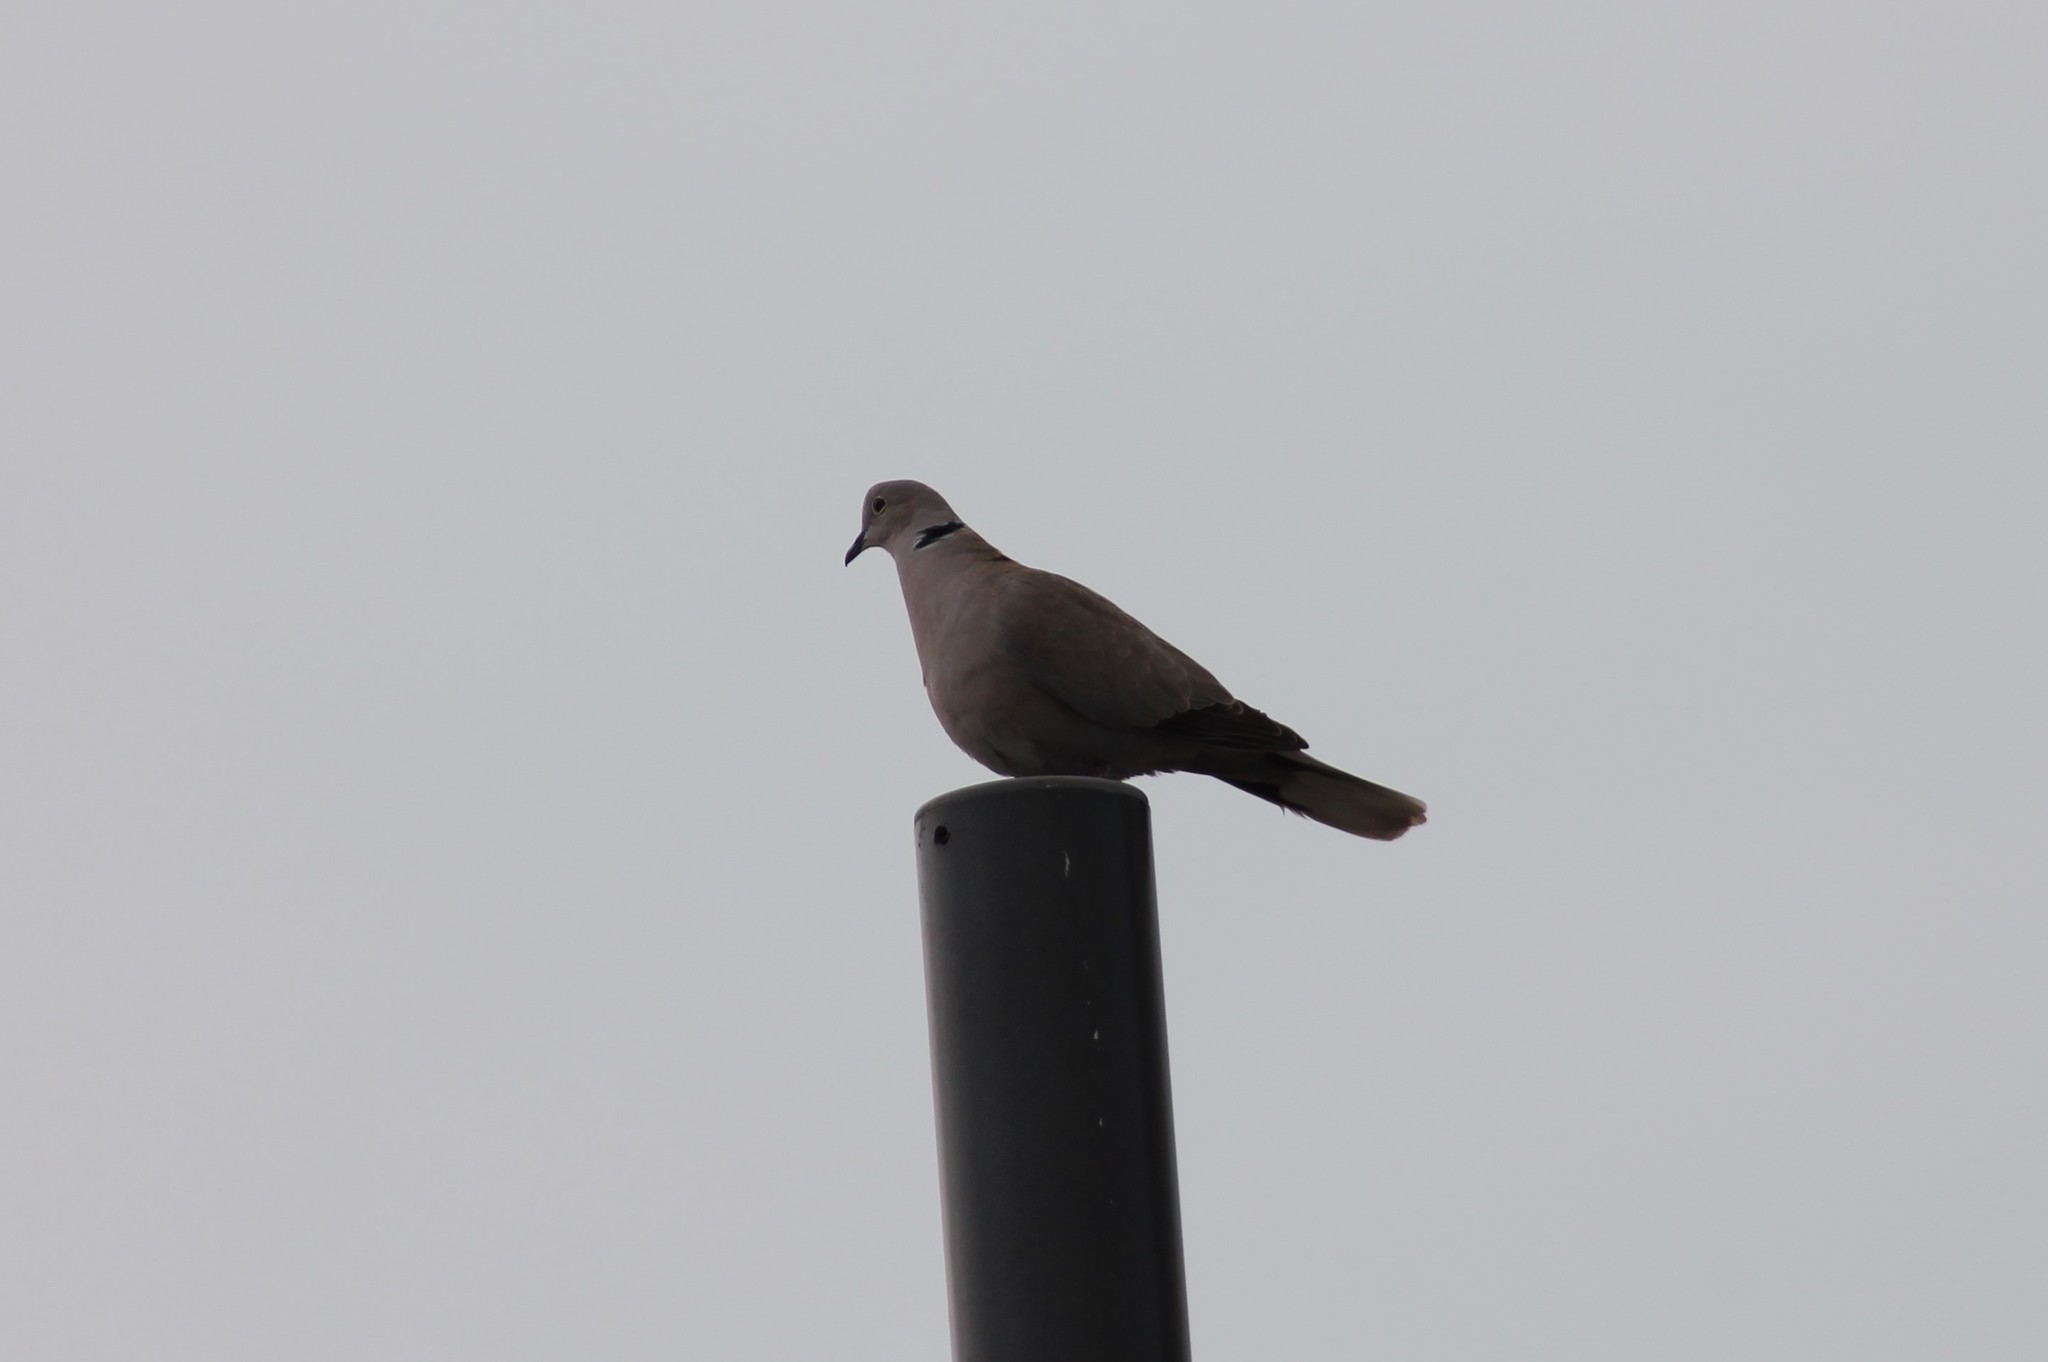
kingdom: Animalia
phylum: Chordata
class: Aves
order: Columbiformes
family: Columbidae
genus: Streptopelia
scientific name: Streptopelia decaocto
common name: Eurasian collared dove
